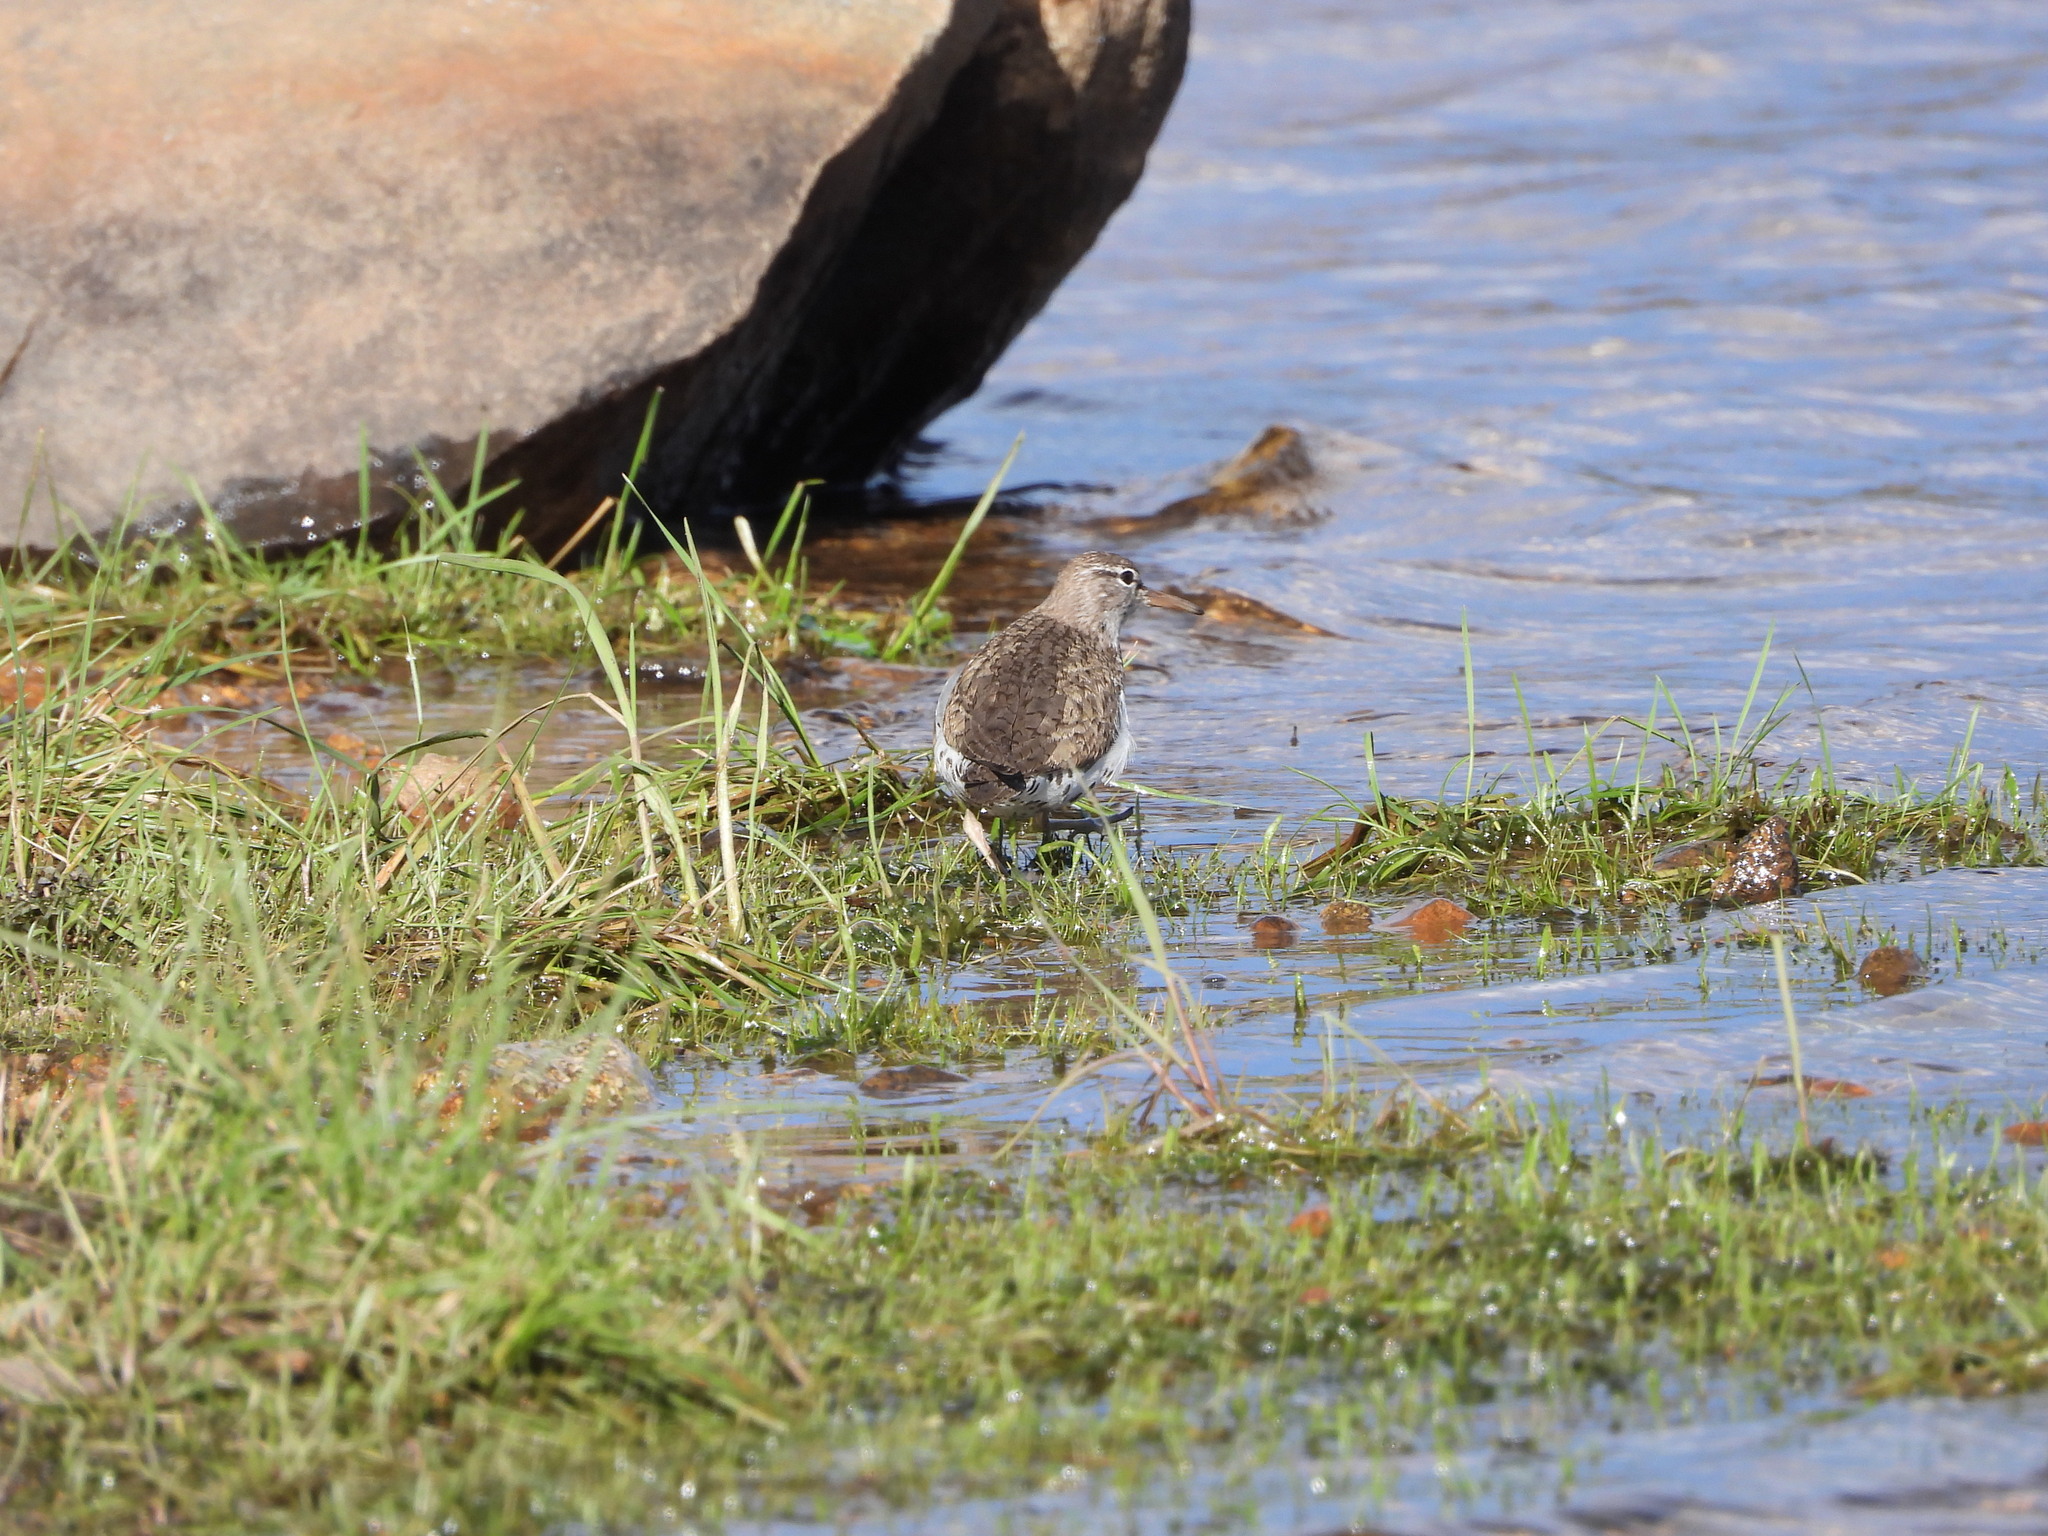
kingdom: Animalia
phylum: Chordata
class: Aves
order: Charadriiformes
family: Scolopacidae
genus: Actitis
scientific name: Actitis macularius
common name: Spotted sandpiper
